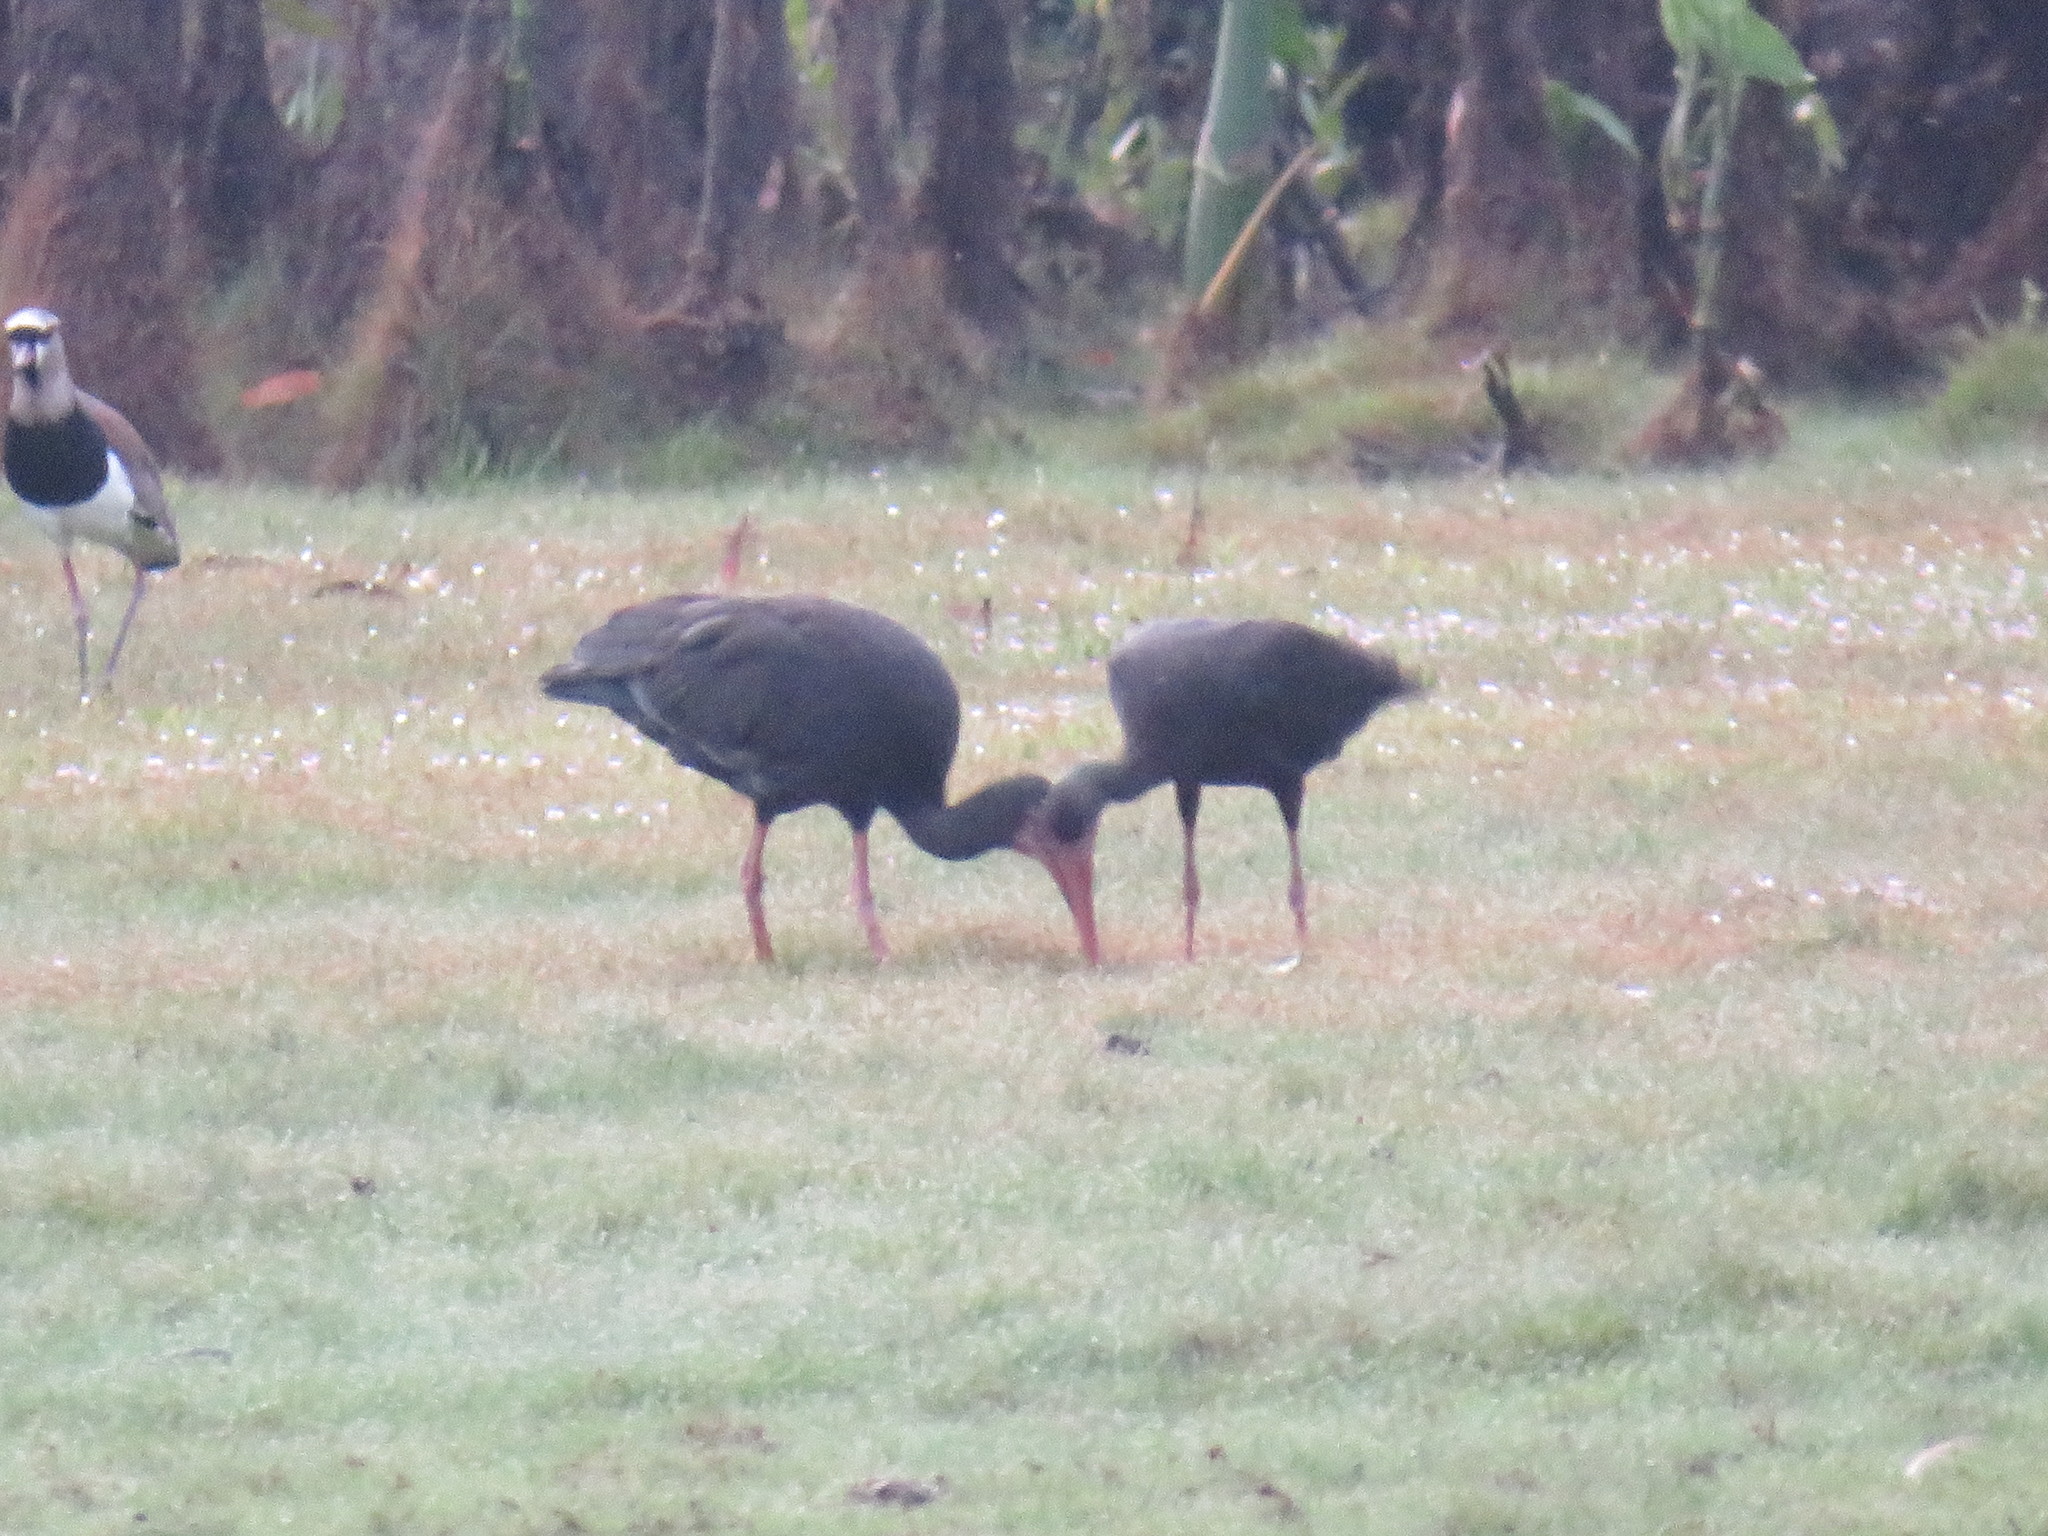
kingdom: Animalia
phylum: Chordata
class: Aves
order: Pelecaniformes
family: Threskiornithidae
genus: Phimosus
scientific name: Phimosus infuscatus
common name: Bare-faced ibis
